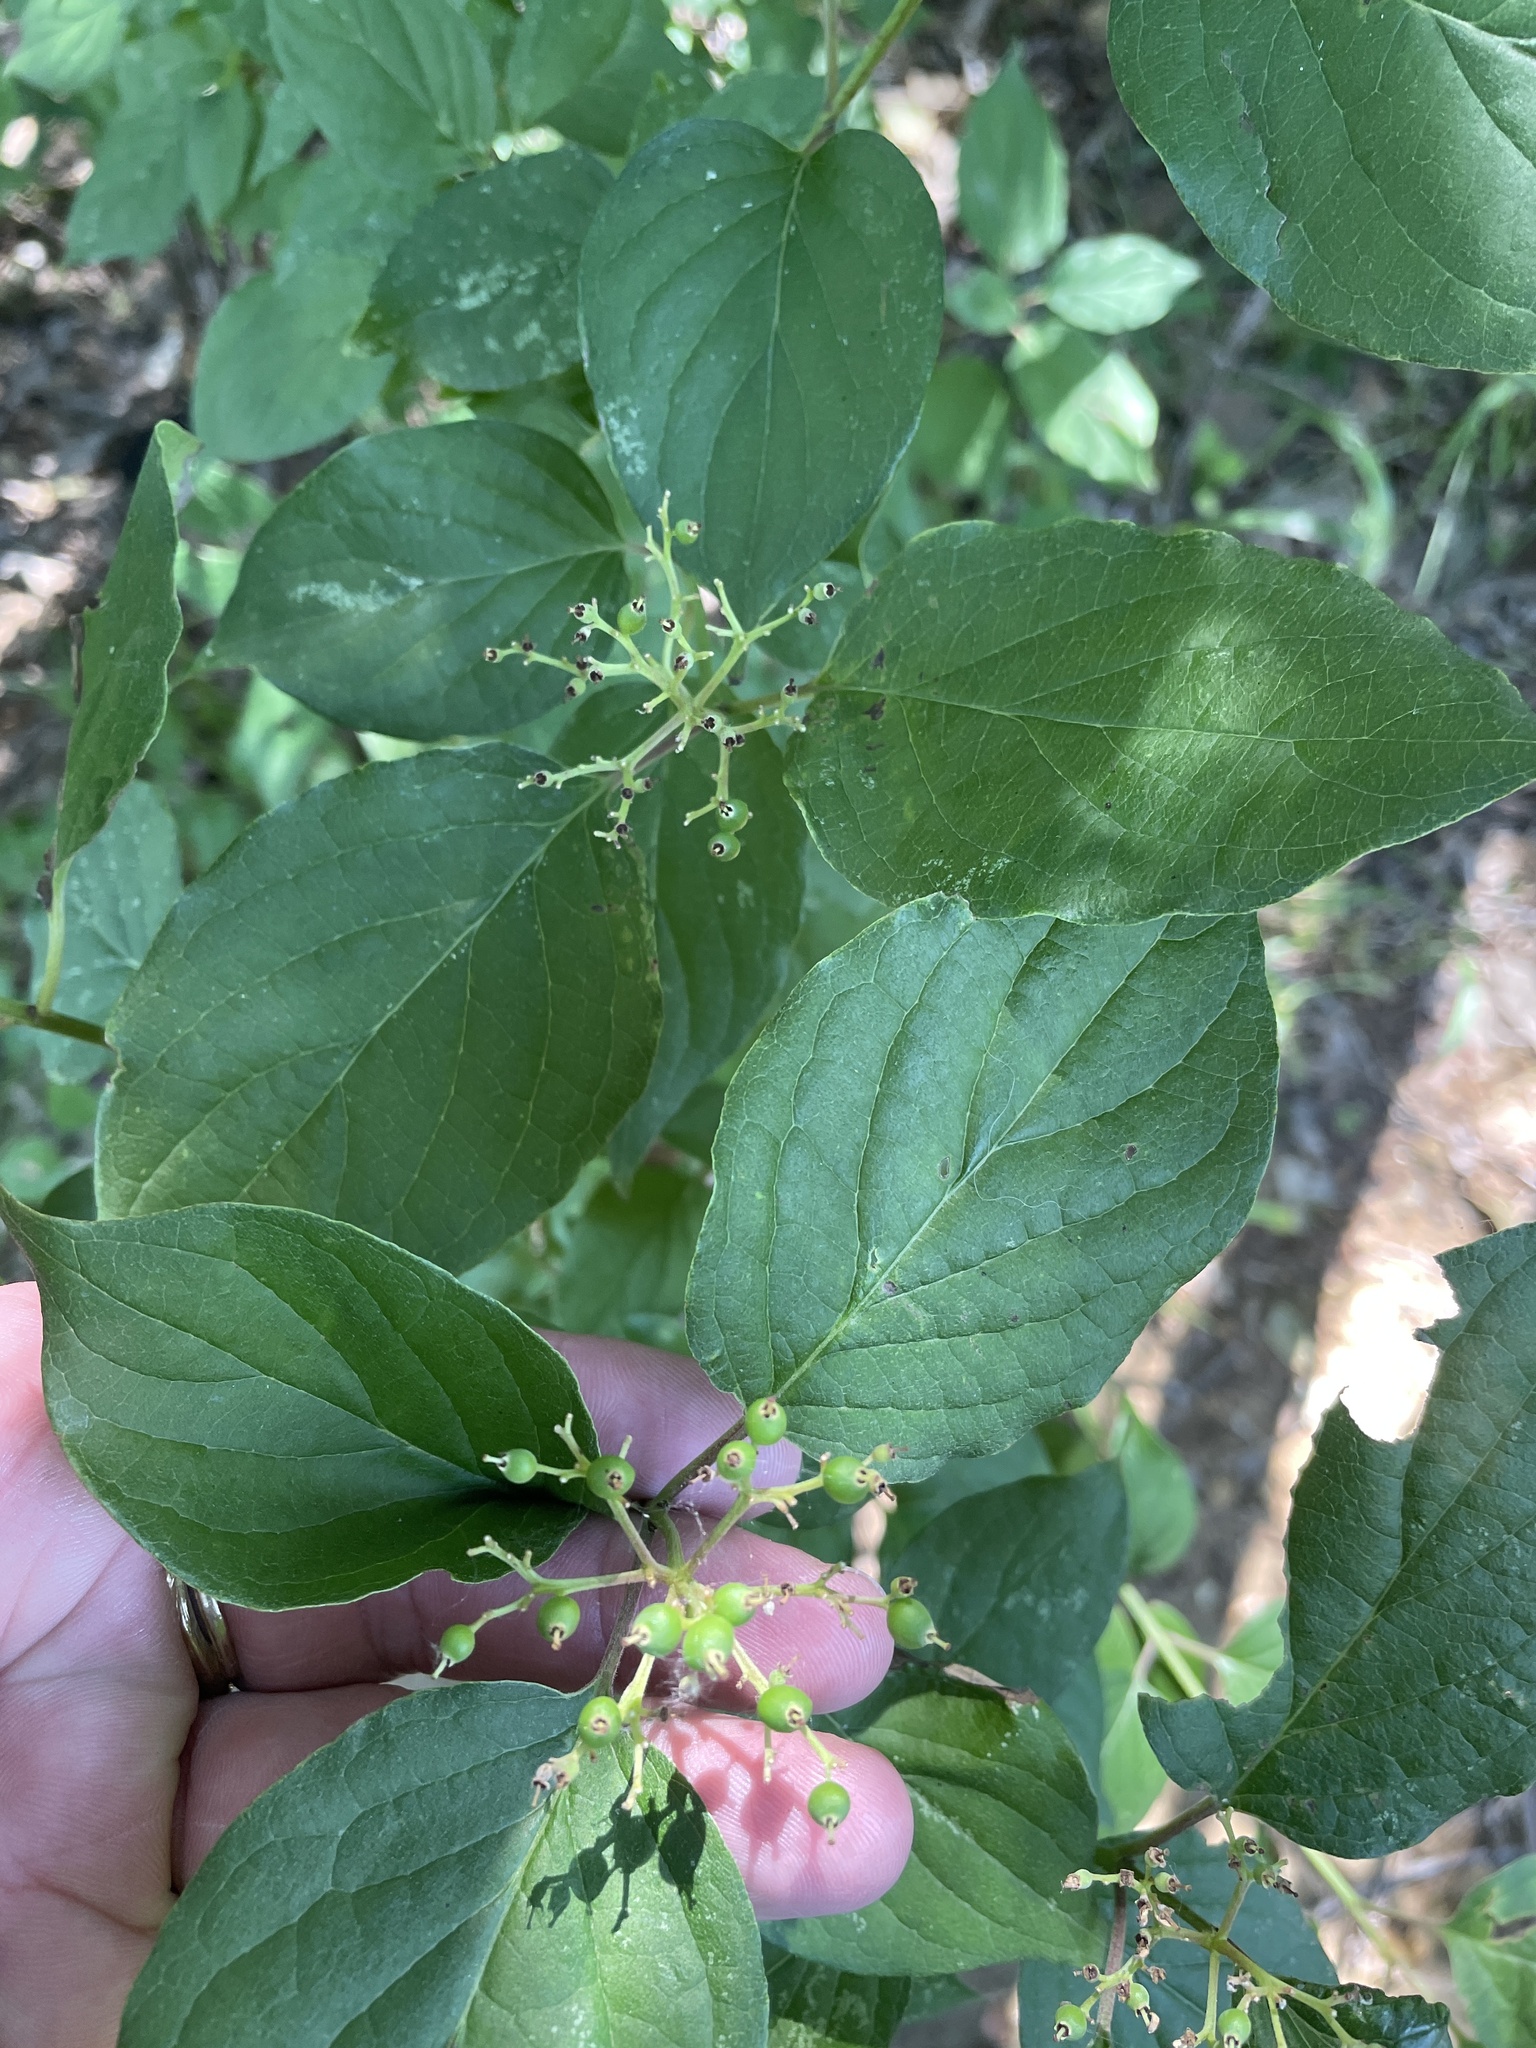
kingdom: Plantae
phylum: Tracheophyta
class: Magnoliopsida
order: Cornales
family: Cornaceae
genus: Cornus
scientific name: Cornus drummondii
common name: Rough-leaf dogwood
